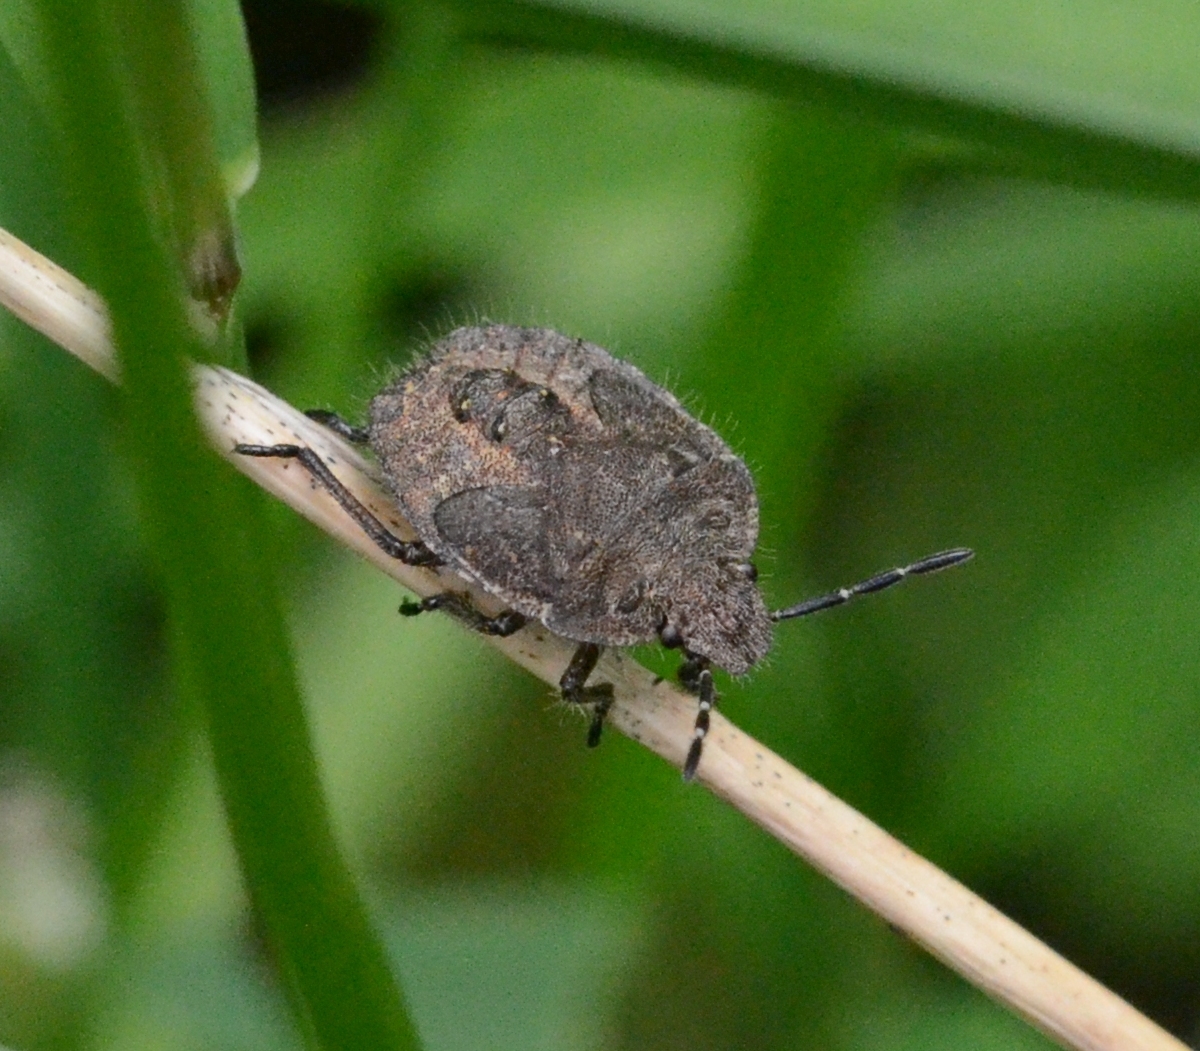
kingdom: Animalia
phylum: Arthropoda
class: Insecta
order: Hemiptera
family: Pentatomidae
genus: Dolycoris
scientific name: Dolycoris baccarum
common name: Sloe bug
